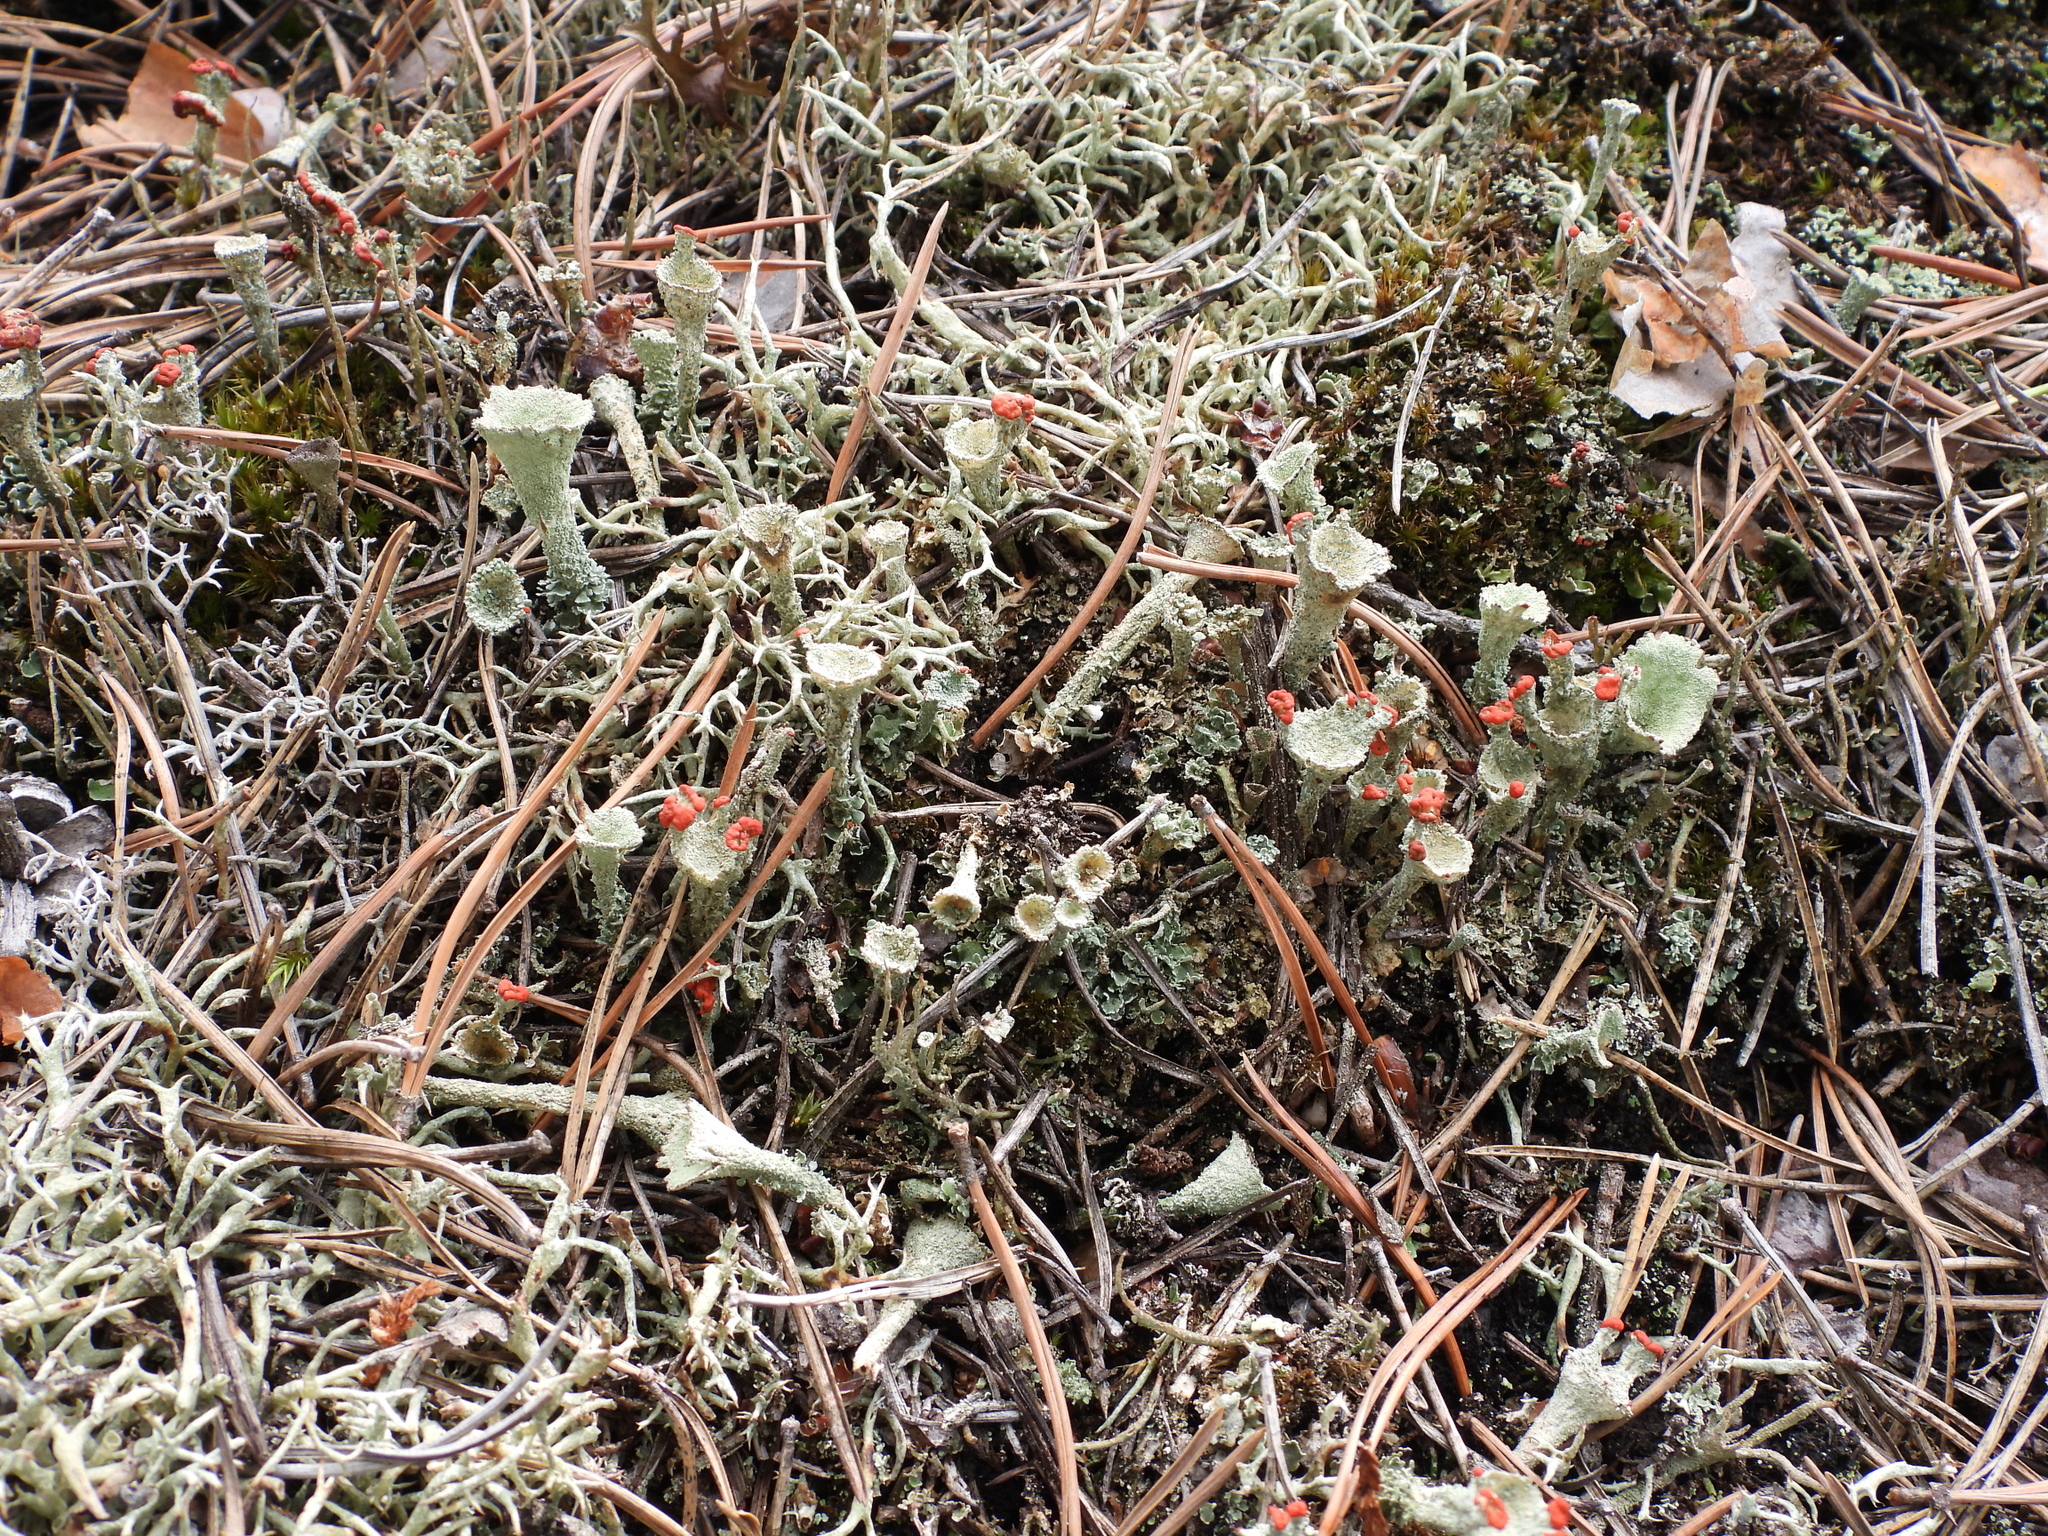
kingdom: Fungi
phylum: Ascomycota
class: Lecanoromycetes
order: Lecanorales
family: Cladoniaceae
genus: Cladonia
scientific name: Cladonia borealis
